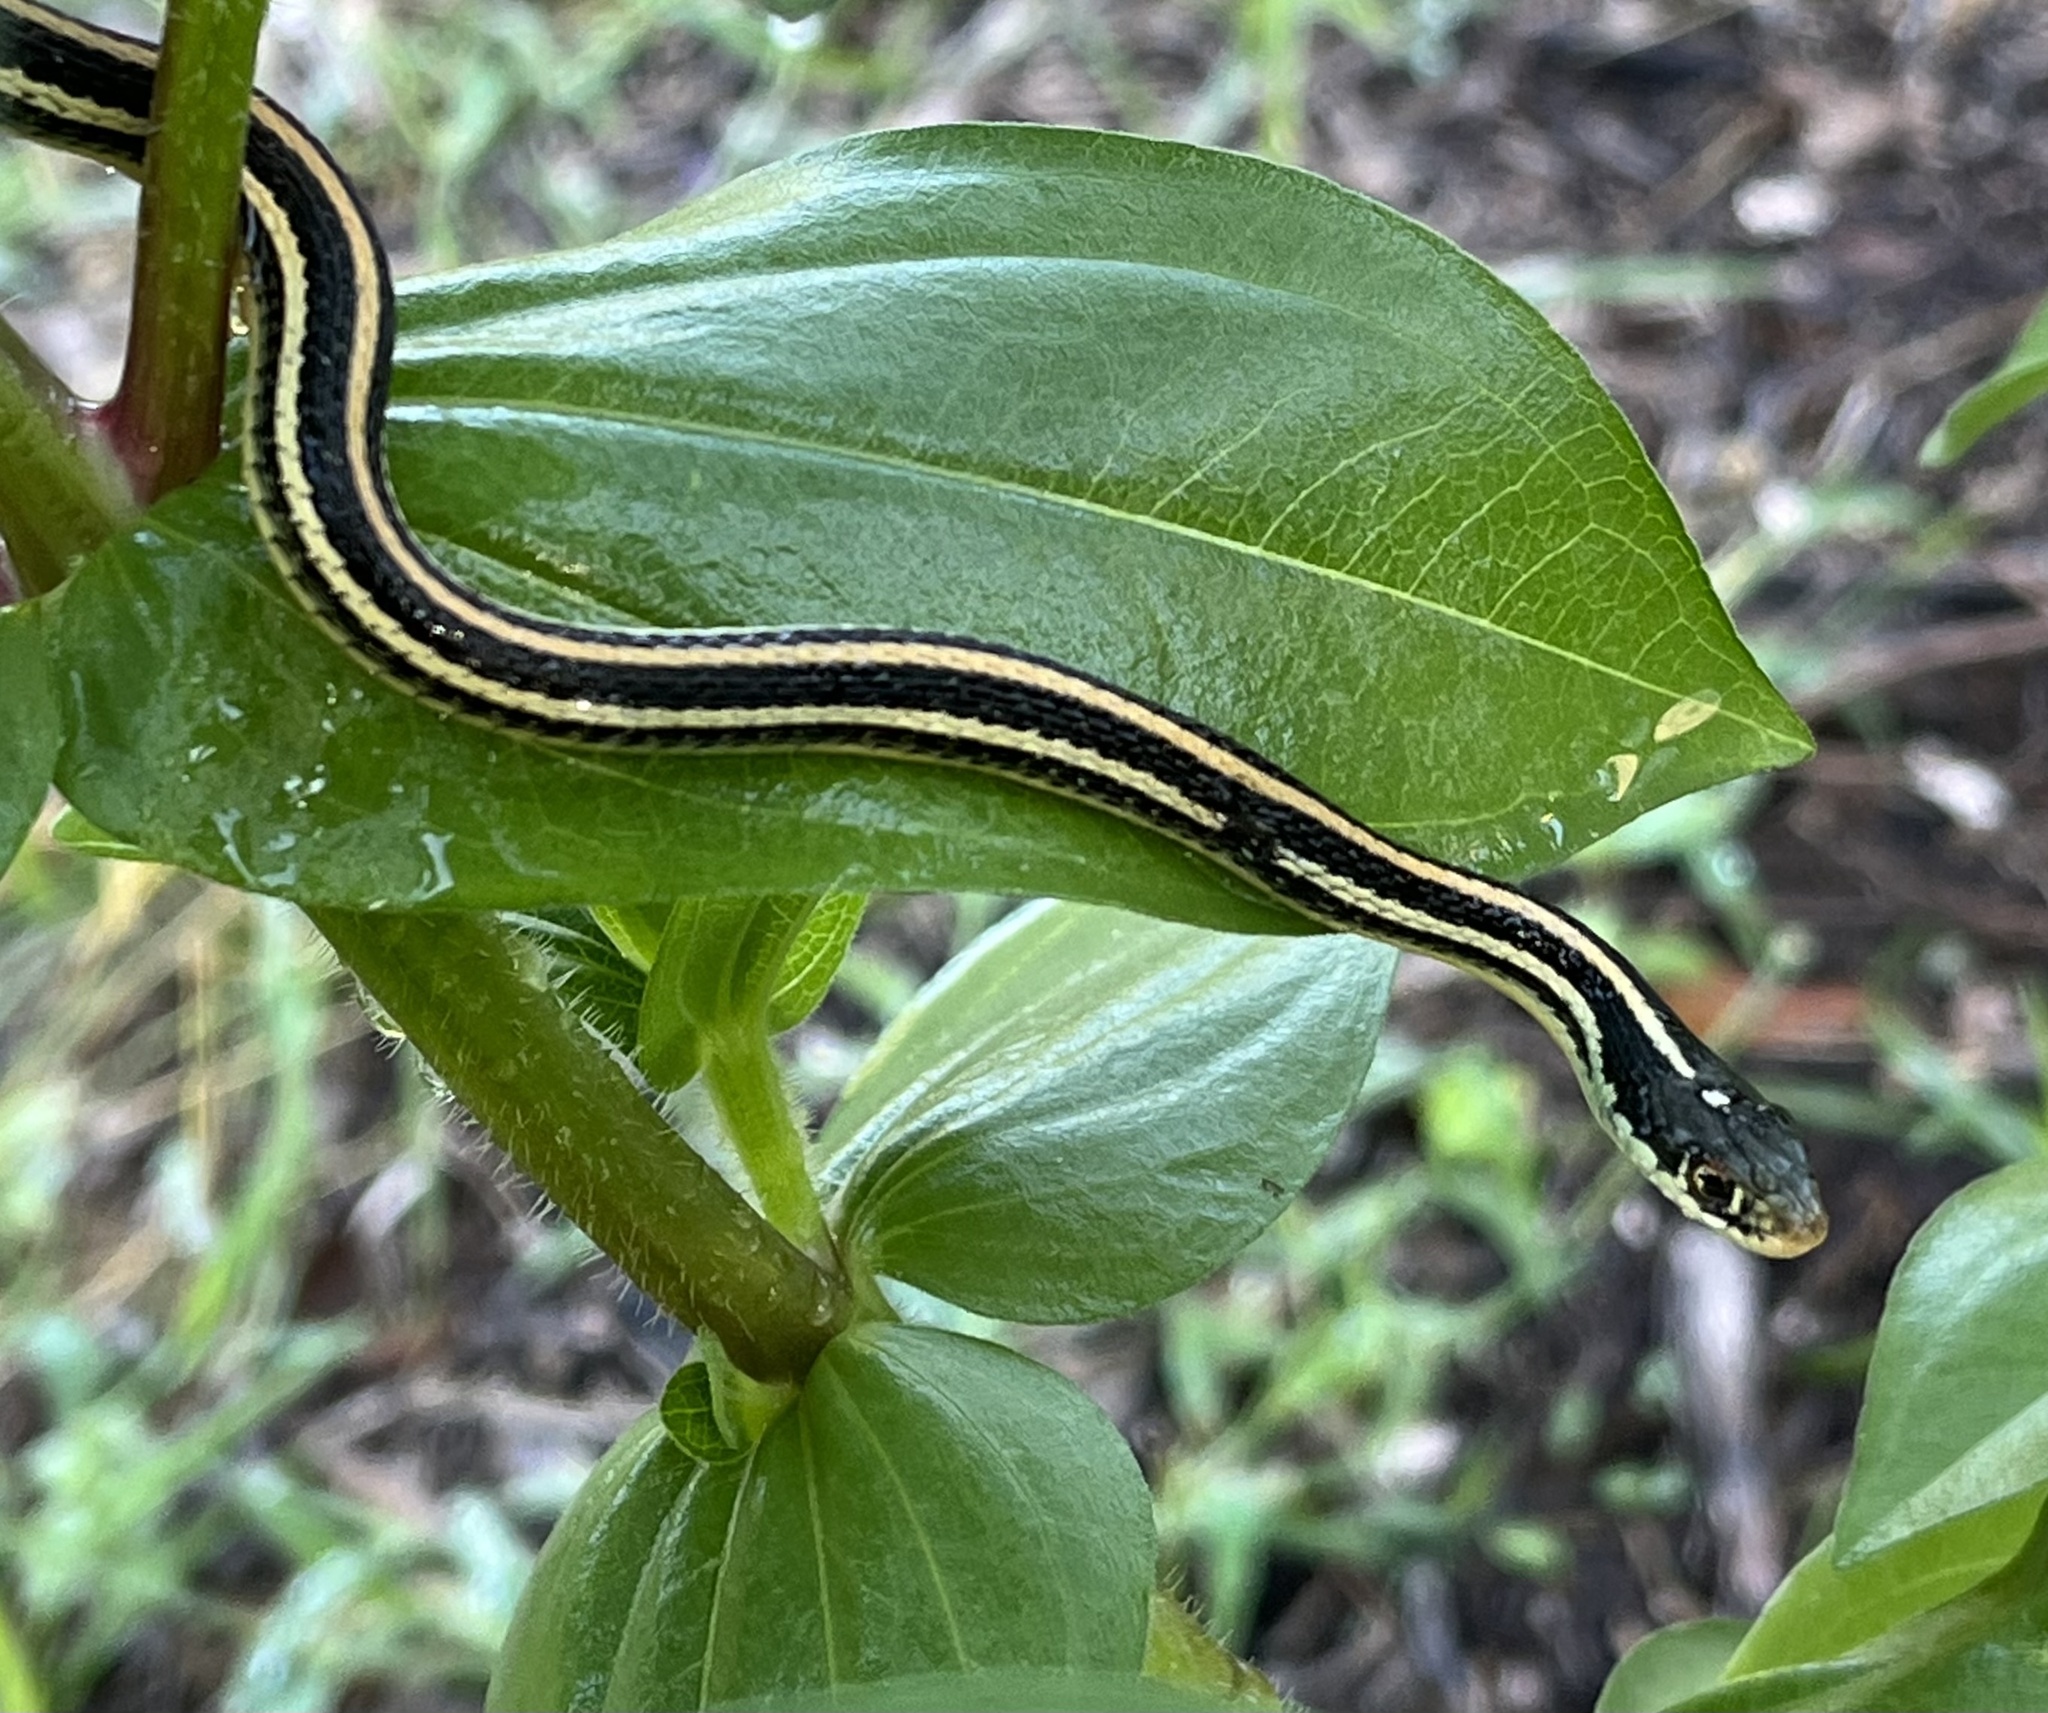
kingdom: Animalia
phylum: Chordata
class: Squamata
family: Colubridae
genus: Thamnophis
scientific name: Thamnophis proximus
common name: Western ribbon snake
